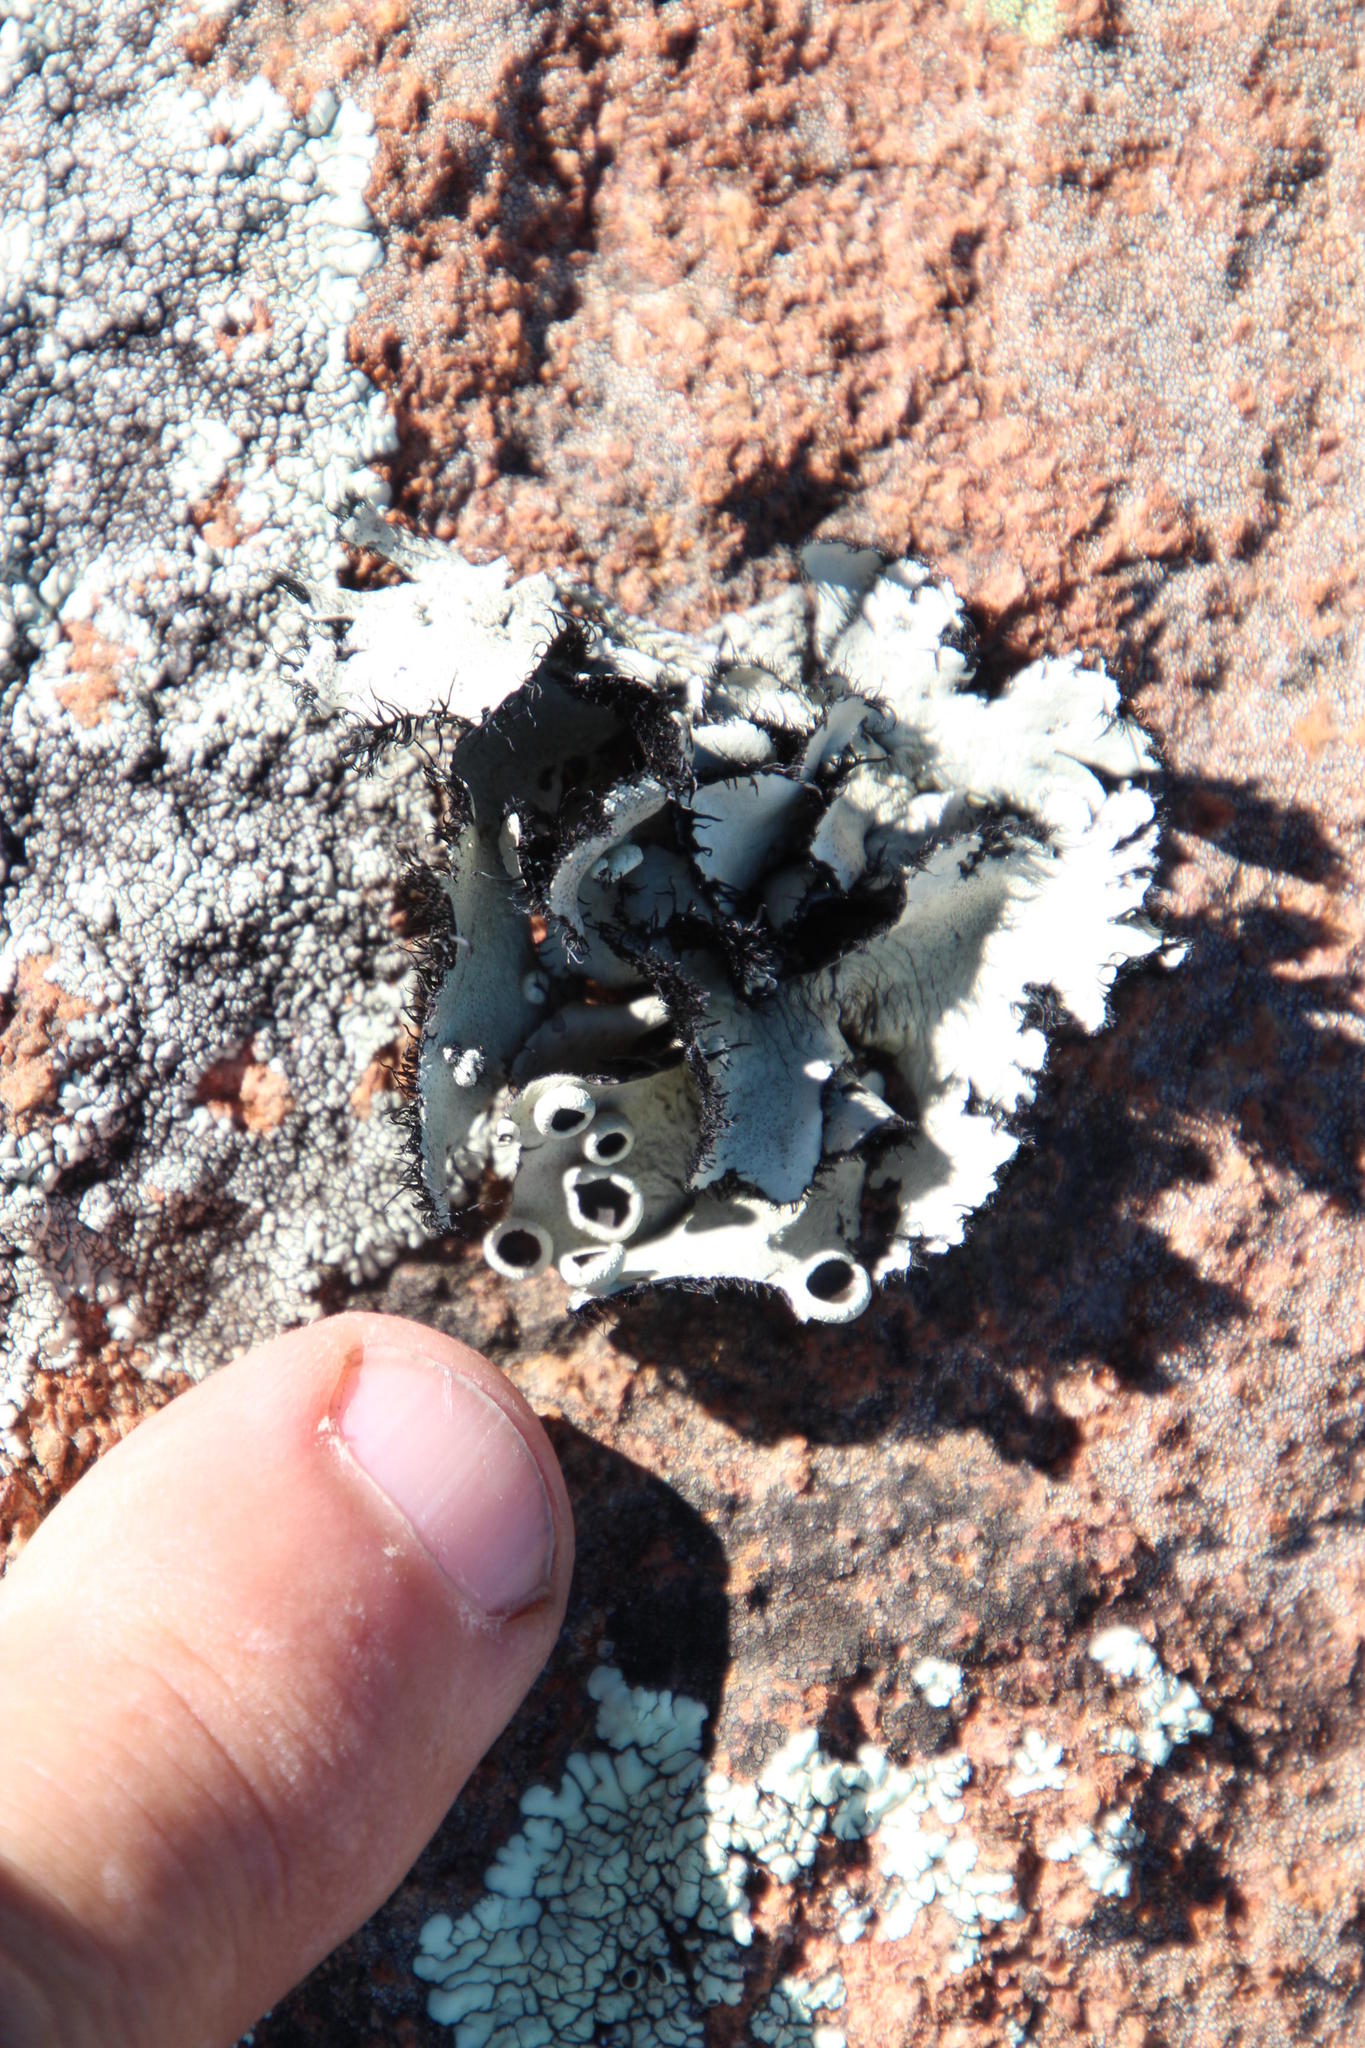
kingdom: Fungi
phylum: Ascomycota
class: Lecanoromycetes
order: Lecanorales
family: Parmeliaceae
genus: Xanthoparmelia
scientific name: Xanthoparmelia hottentotta
